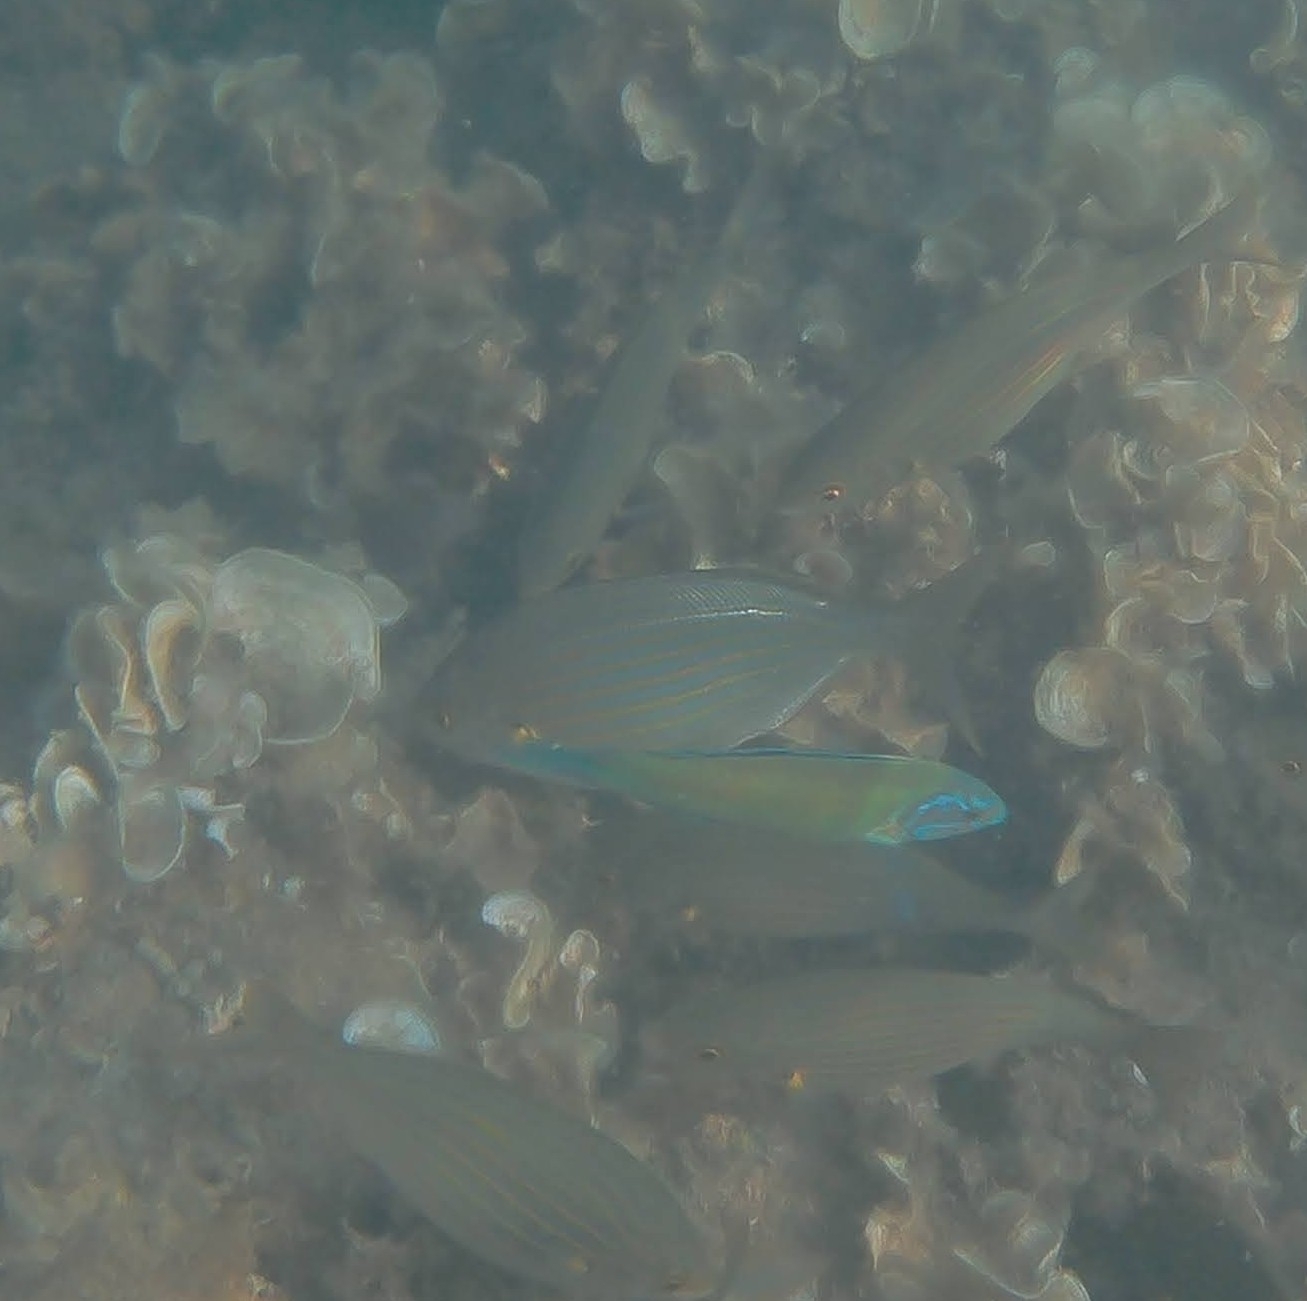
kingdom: Animalia
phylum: Chordata
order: Perciformes
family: Sparidae
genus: Sarpa
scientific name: Sarpa salpa
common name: Salema
